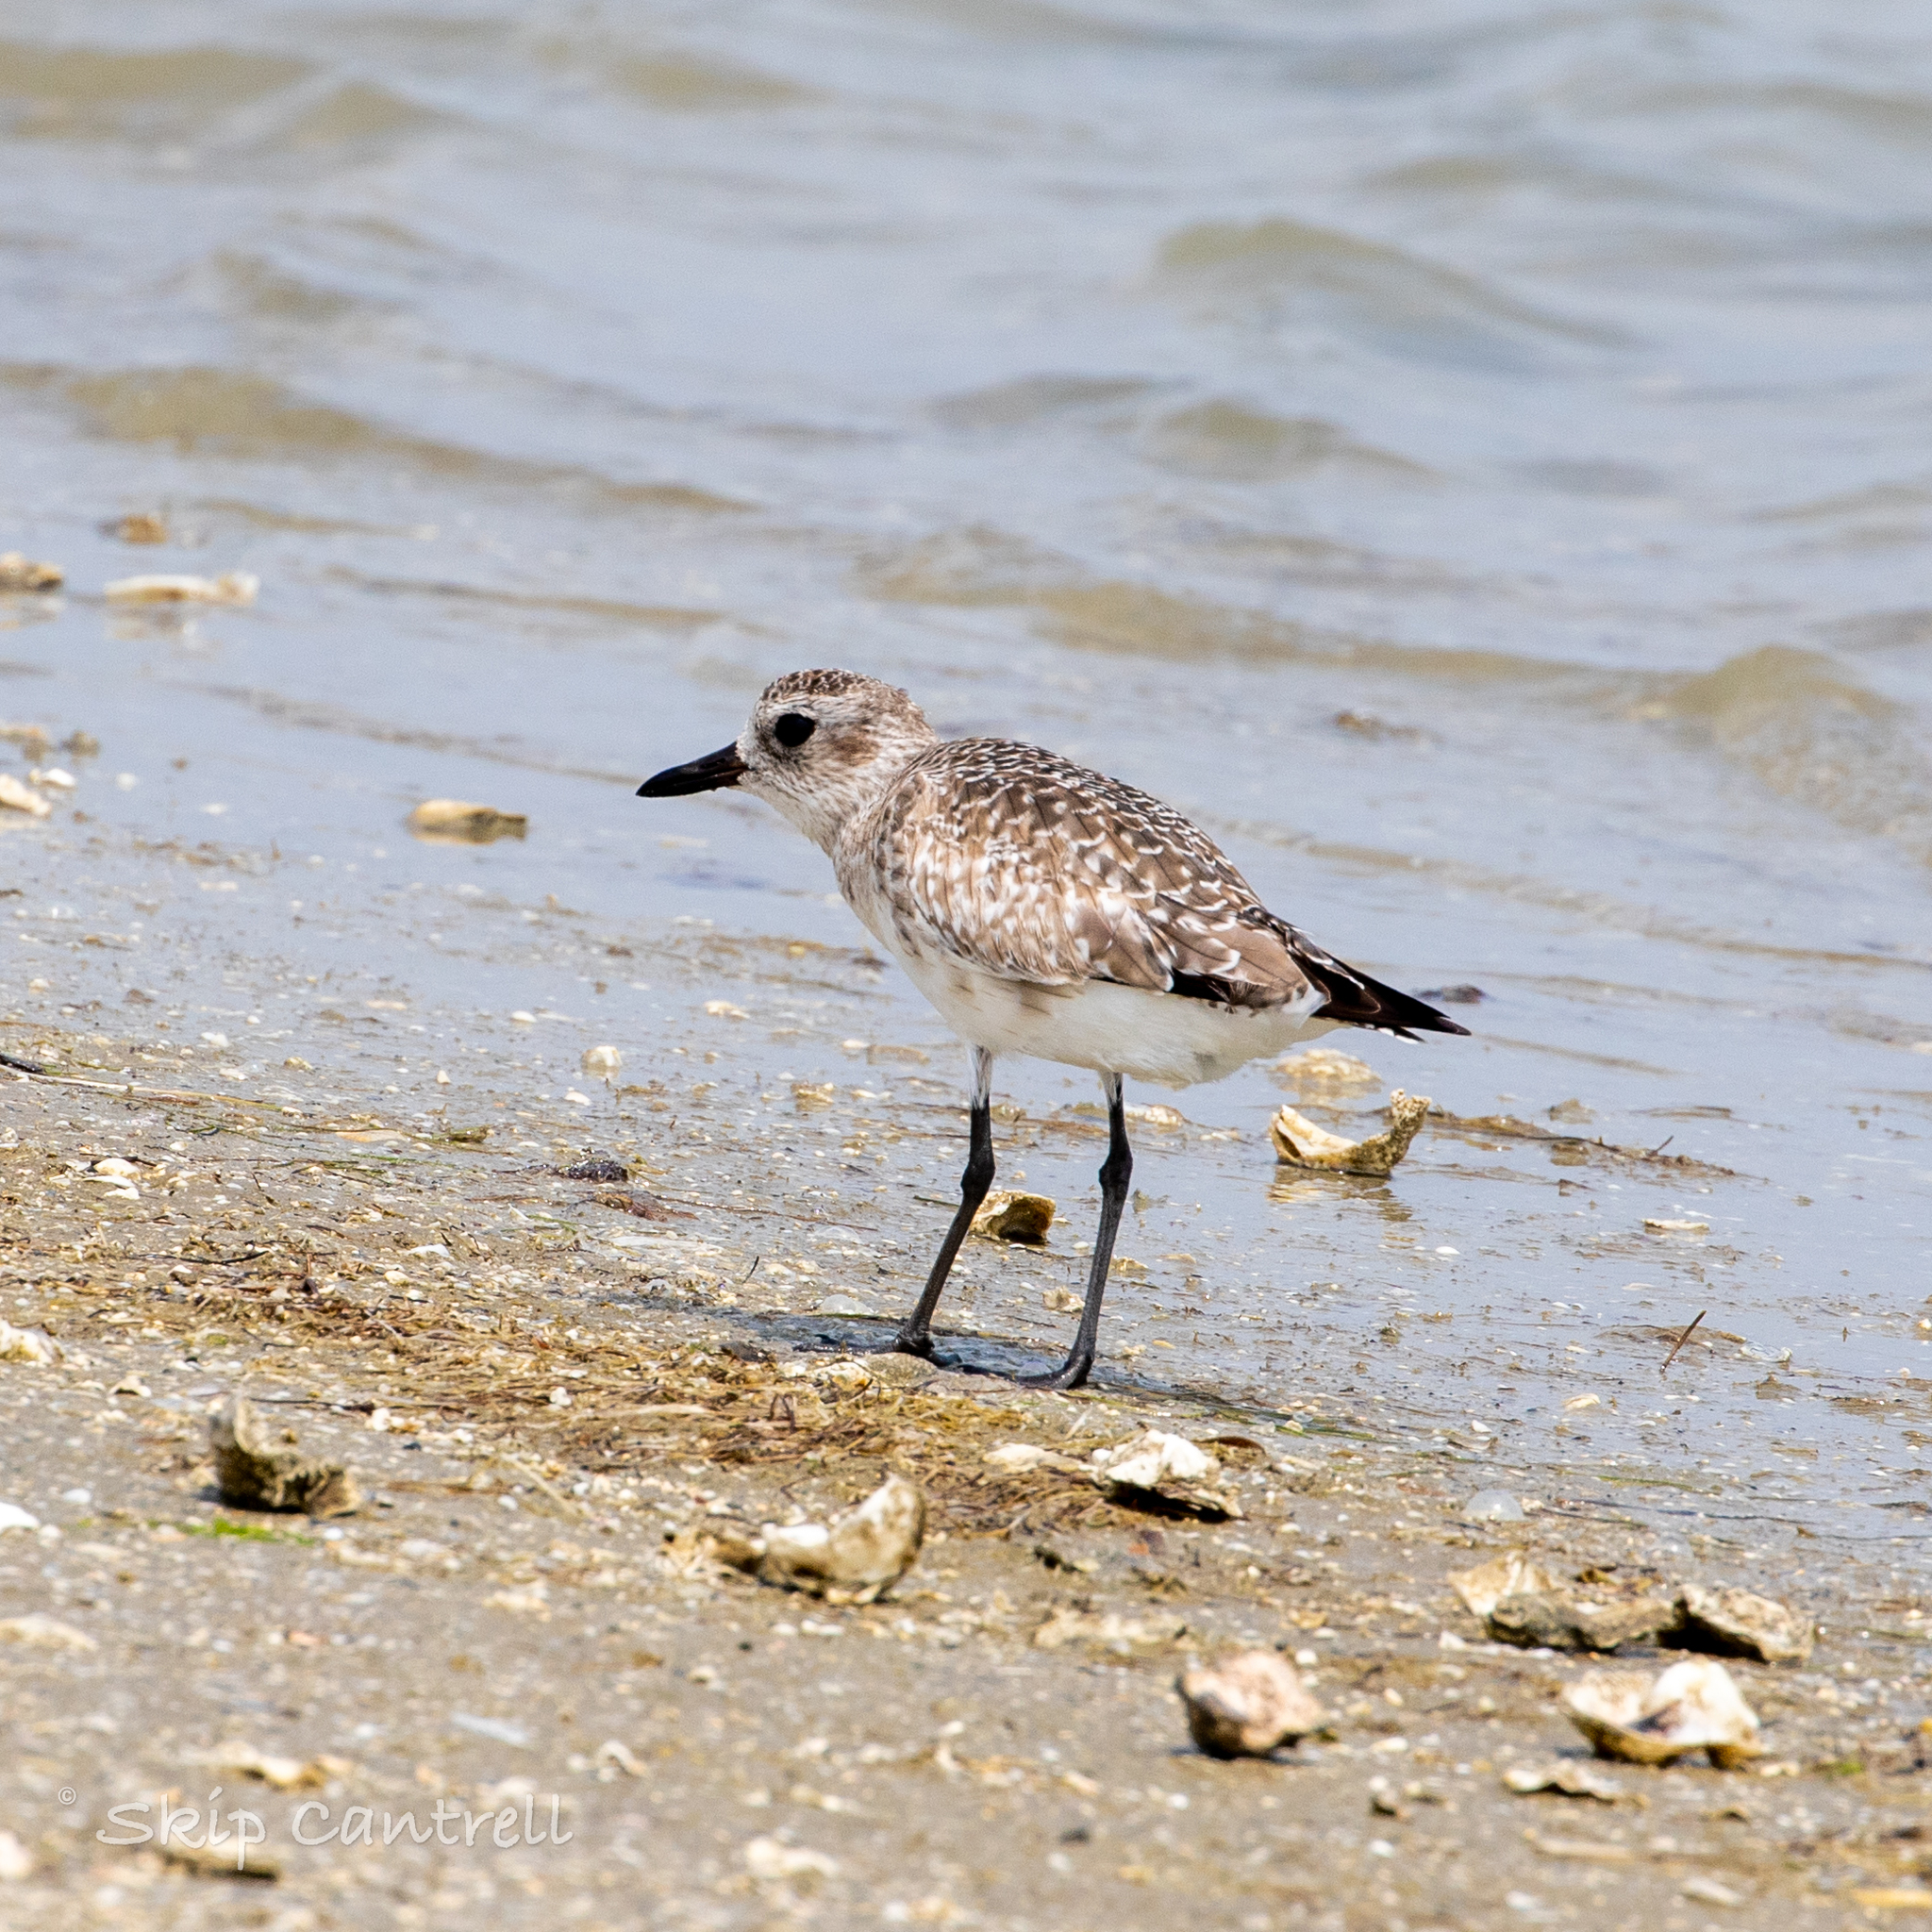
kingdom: Animalia
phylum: Chordata
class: Aves
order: Charadriiformes
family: Charadriidae
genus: Pluvialis
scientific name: Pluvialis squatarola
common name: Grey plover
